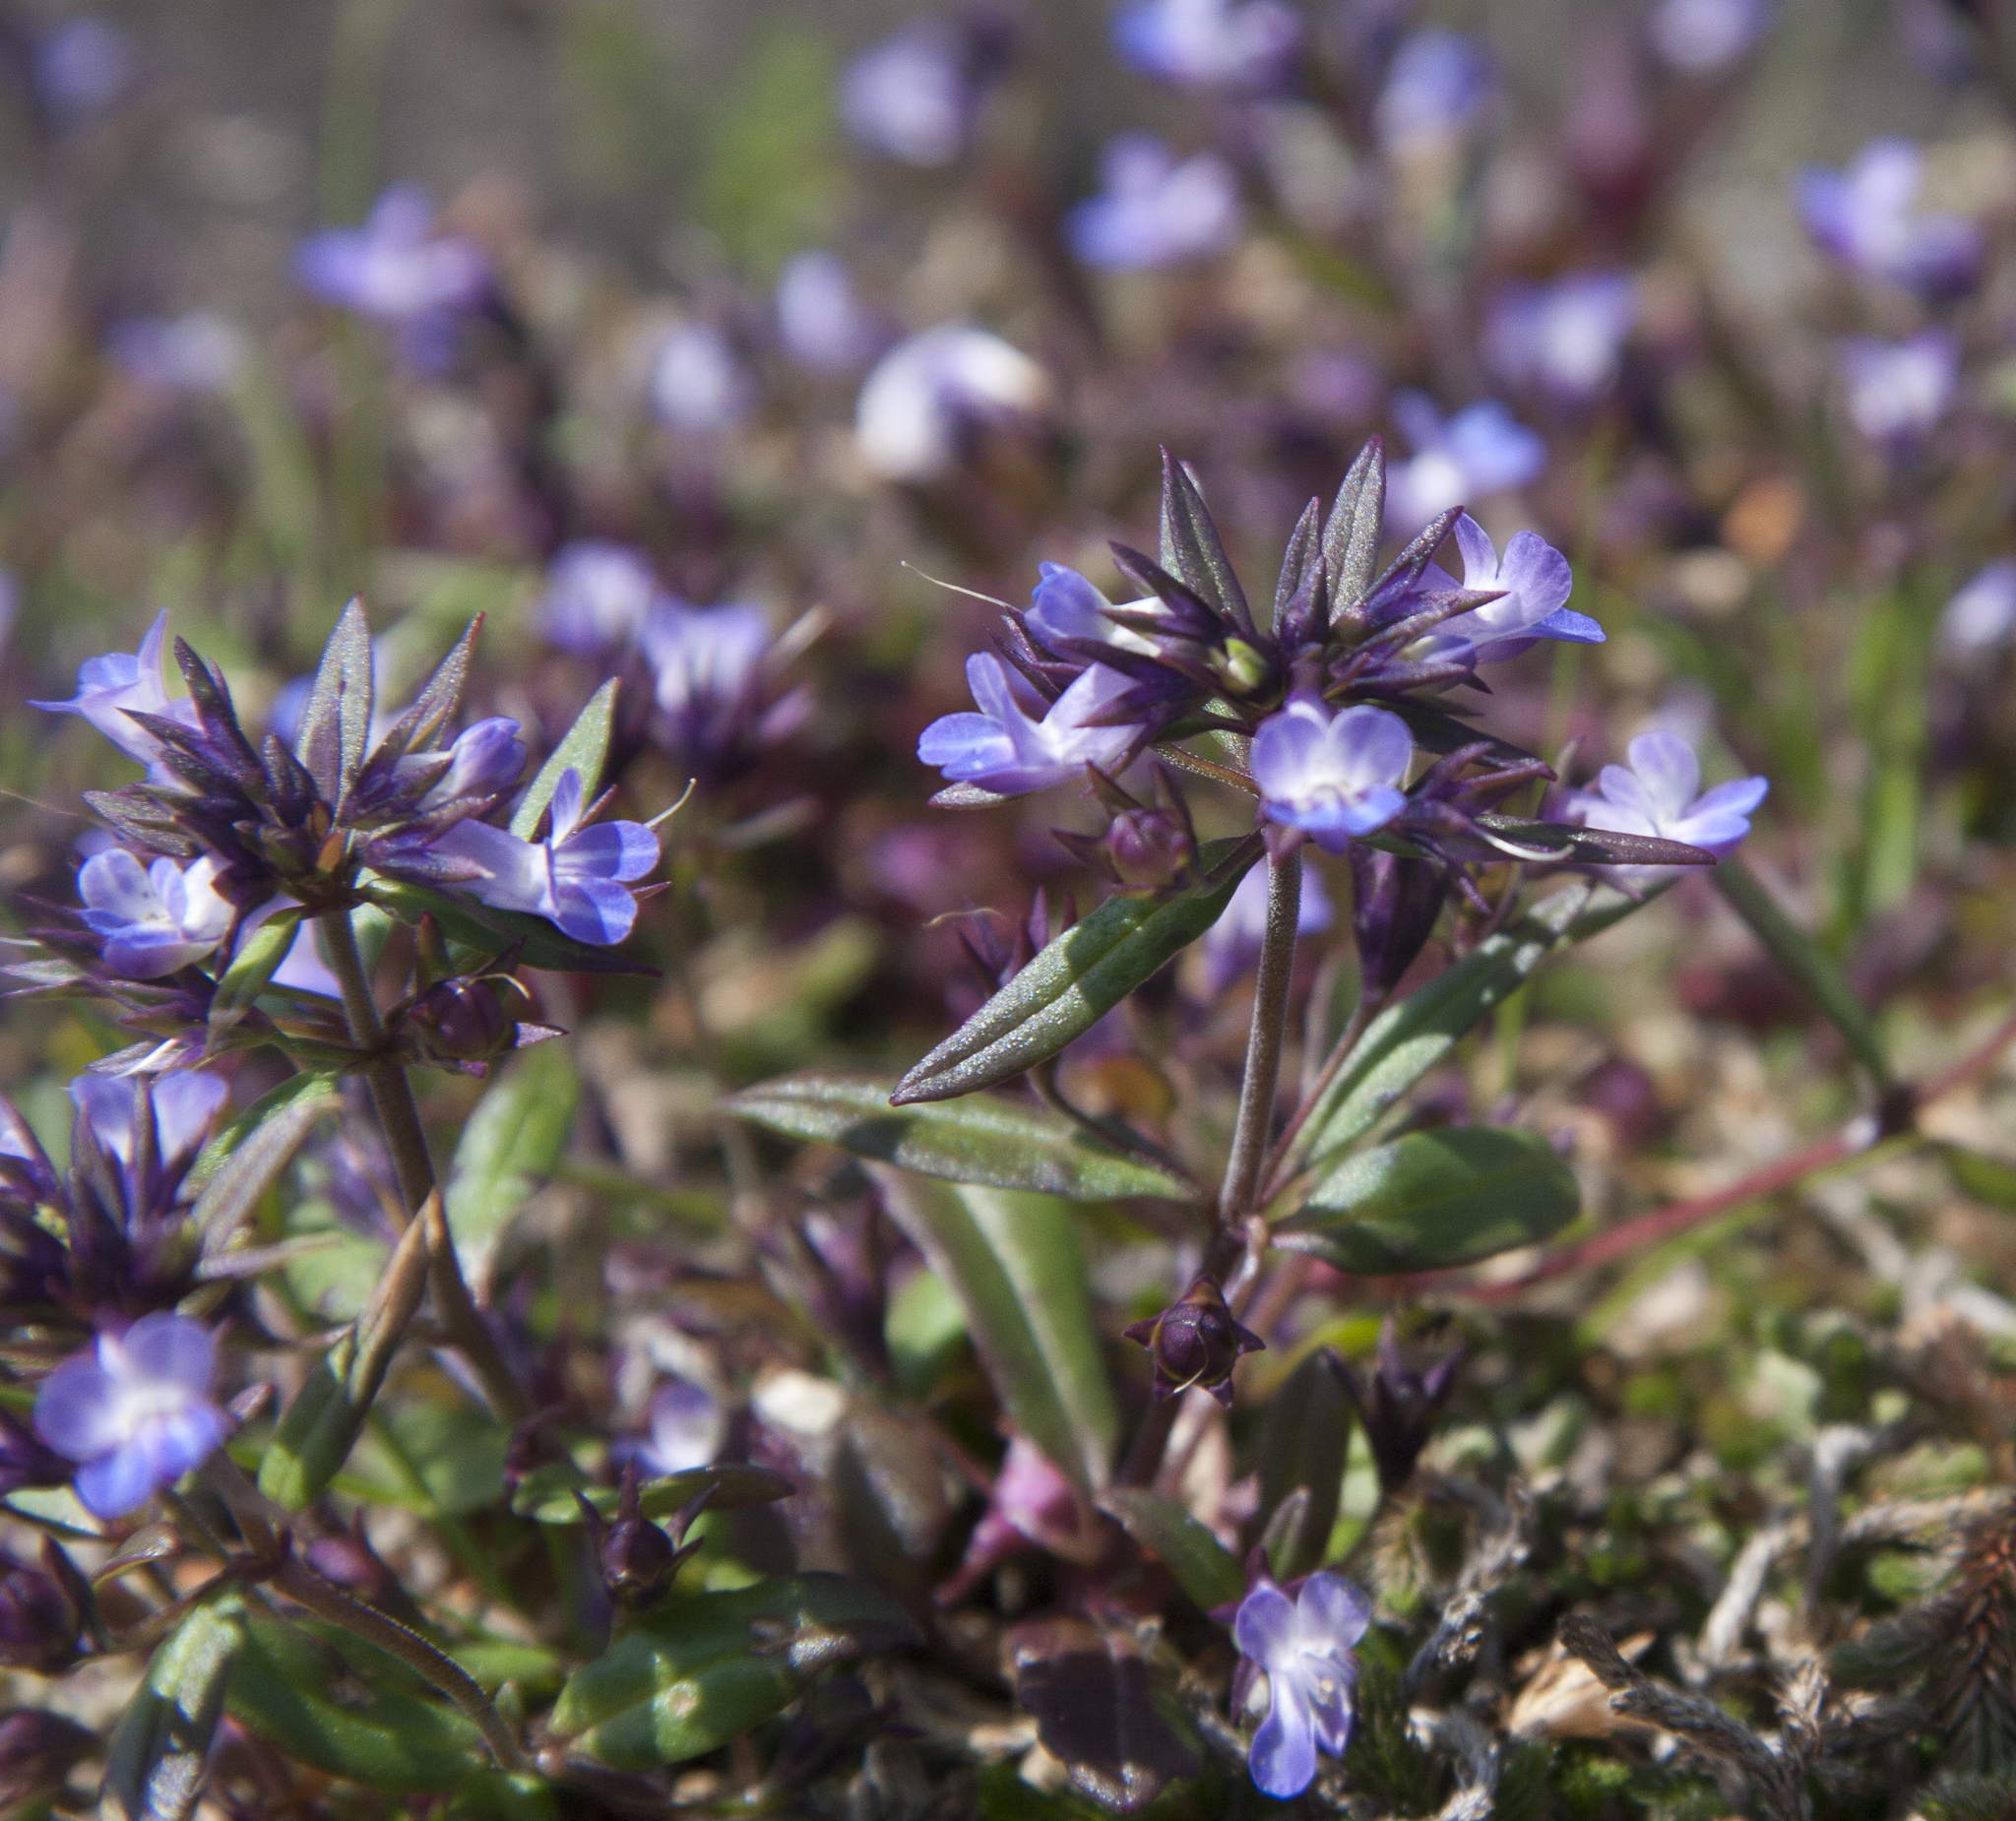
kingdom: Plantae
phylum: Tracheophyta
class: Magnoliopsida
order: Lamiales
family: Plantaginaceae
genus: Collinsia
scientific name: Collinsia parviflora
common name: Blue-lips
